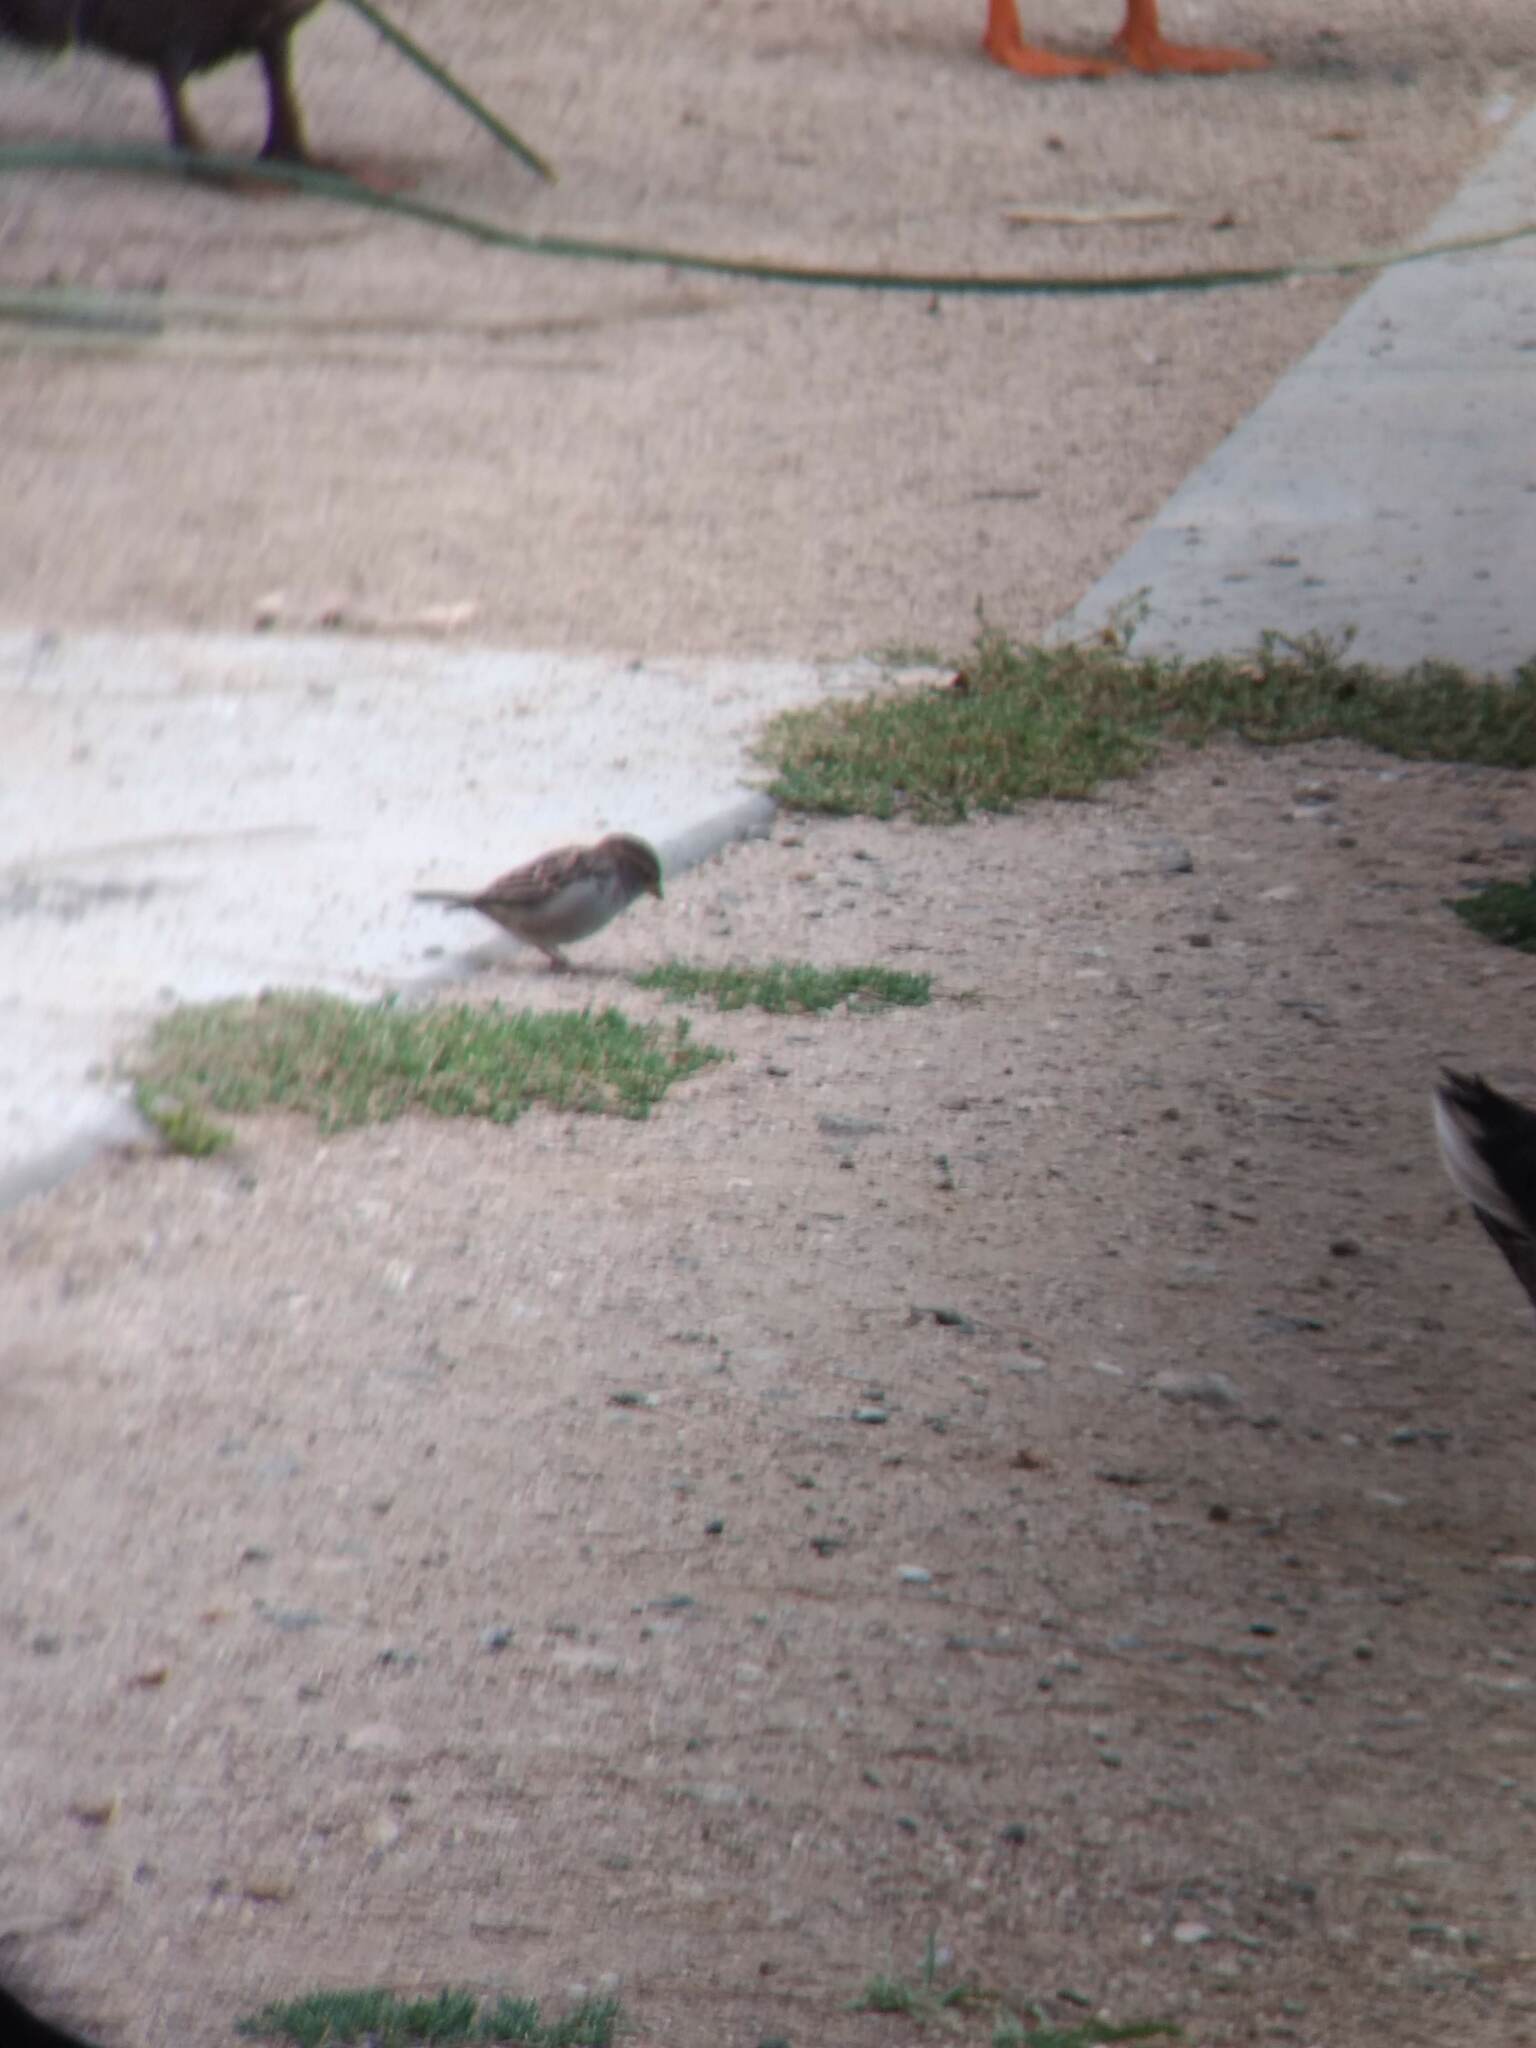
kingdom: Animalia
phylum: Chordata
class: Aves
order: Passeriformes
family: Passeridae
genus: Passer
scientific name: Passer domesticus
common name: House sparrow
